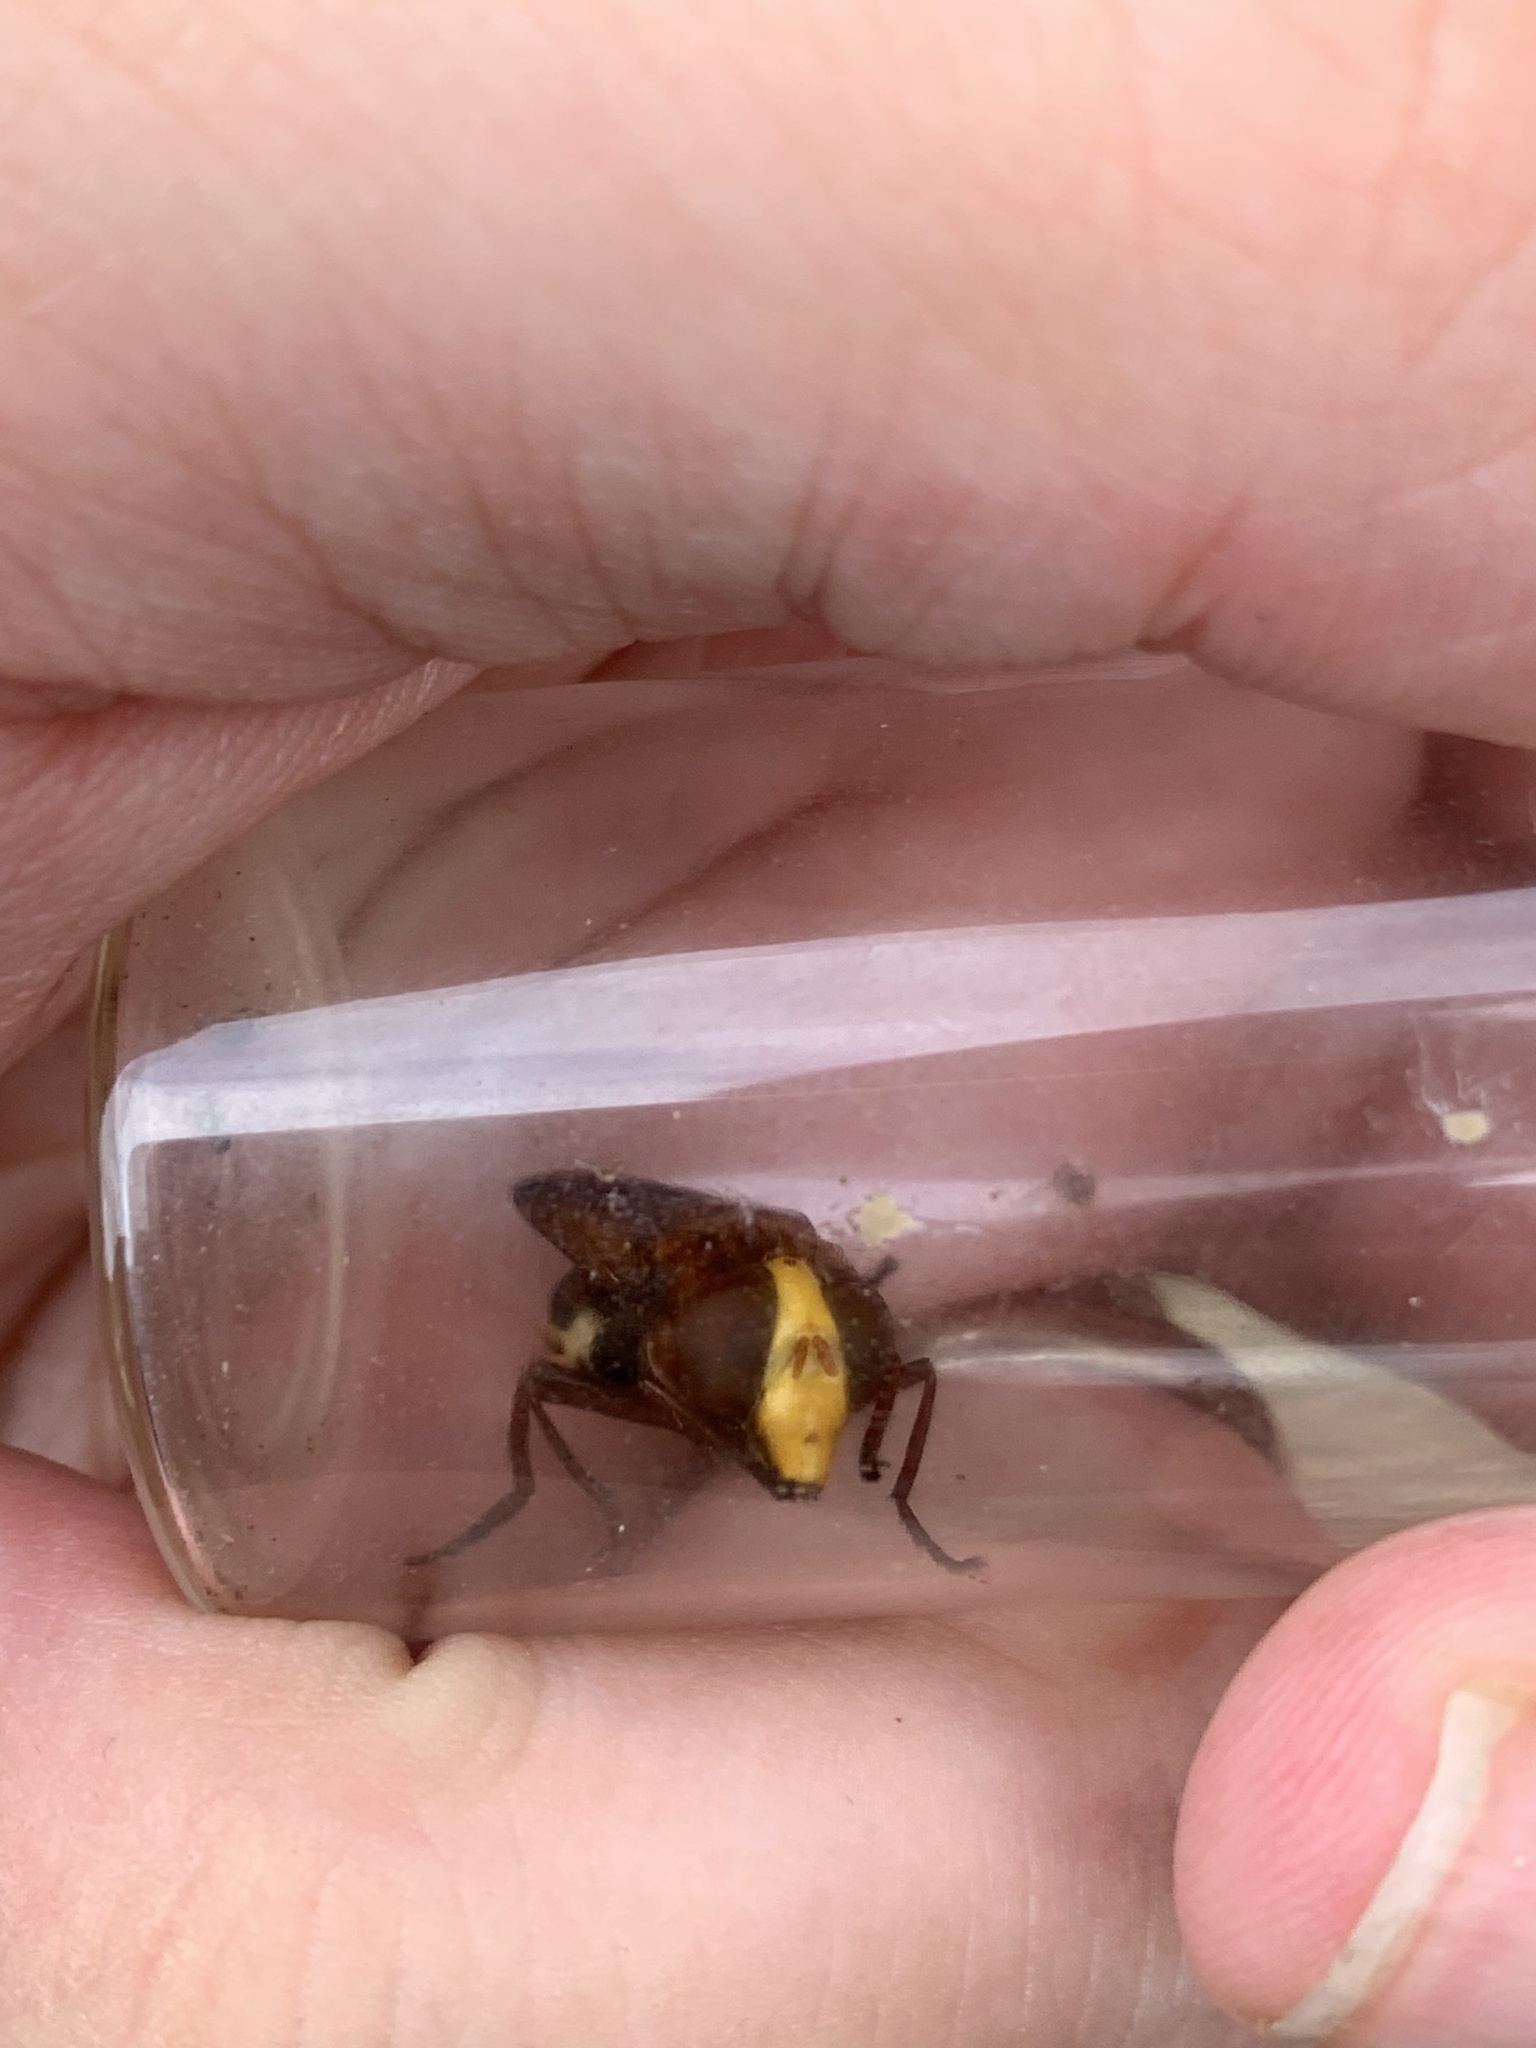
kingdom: Animalia
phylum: Arthropoda
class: Insecta
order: Diptera
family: Syrphidae
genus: Volucella
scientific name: Volucella zonaria
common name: Hornet hoverfly
